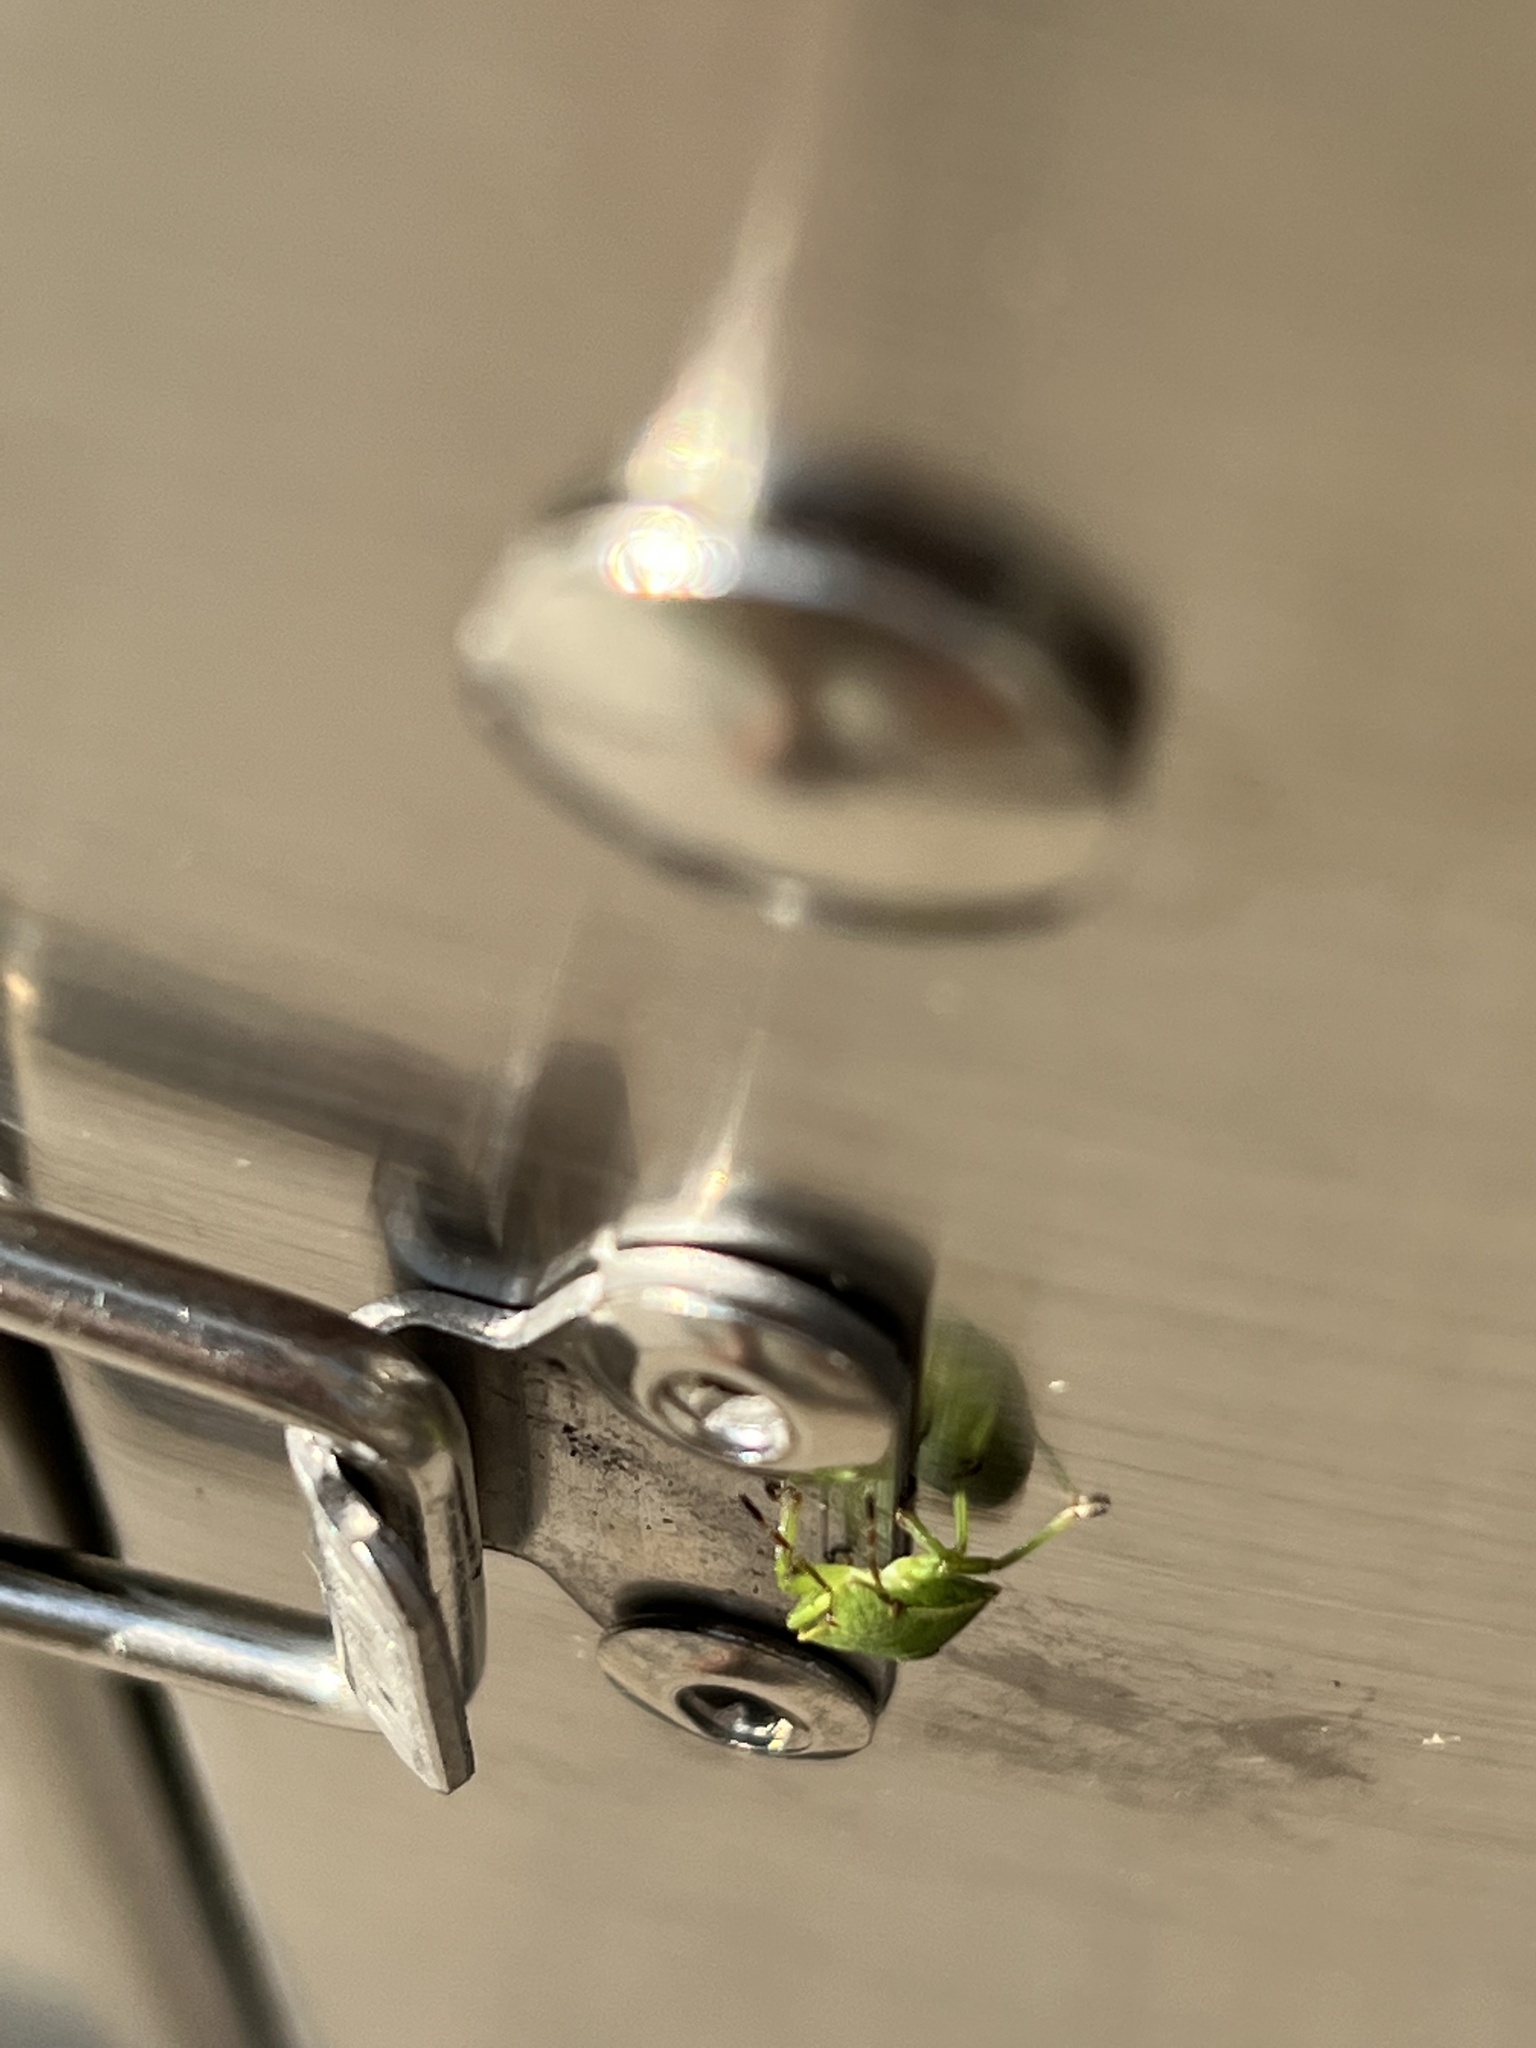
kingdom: Animalia
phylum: Arthropoda
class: Insecta
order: Hemiptera
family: Pentatomidae
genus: Palomena
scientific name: Palomena prasina
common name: Green shieldbug
